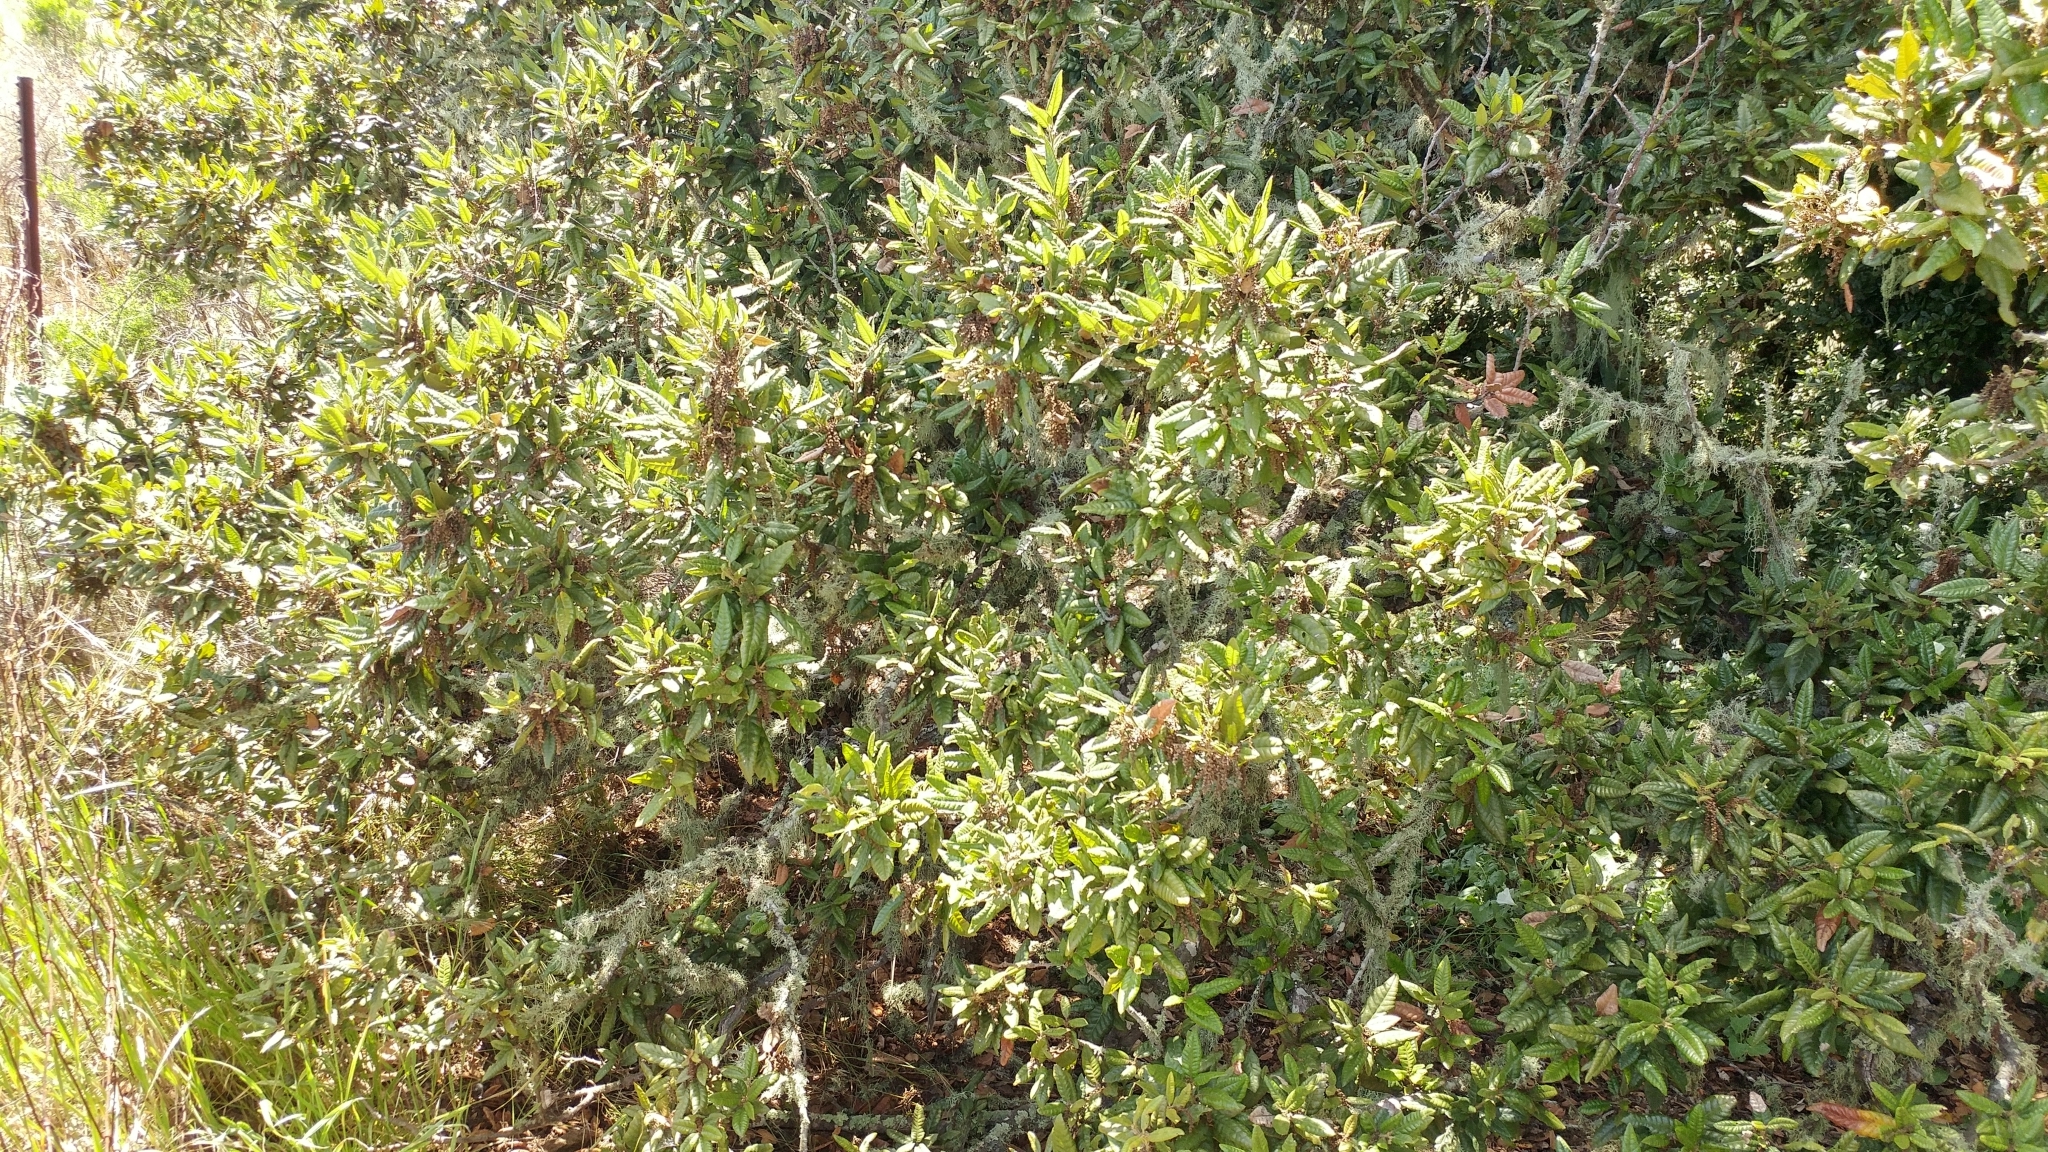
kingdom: Plantae
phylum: Tracheophyta
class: Magnoliopsida
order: Fagales
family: Fagaceae
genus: Quercus
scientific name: Quercus tomentella
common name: Island oak
